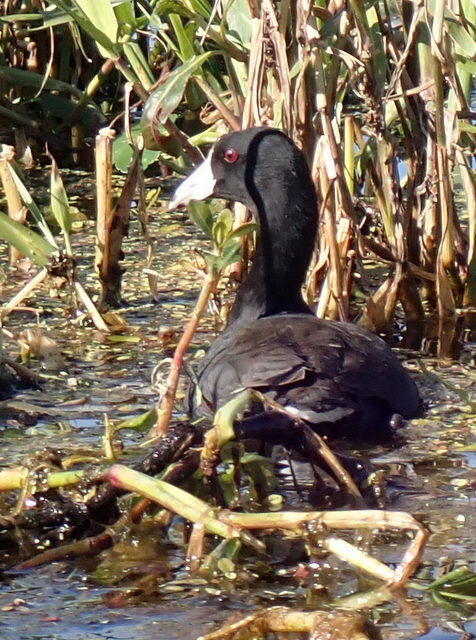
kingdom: Animalia
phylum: Chordata
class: Aves
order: Gruiformes
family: Rallidae
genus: Fulica
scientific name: Fulica americana
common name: American coot
